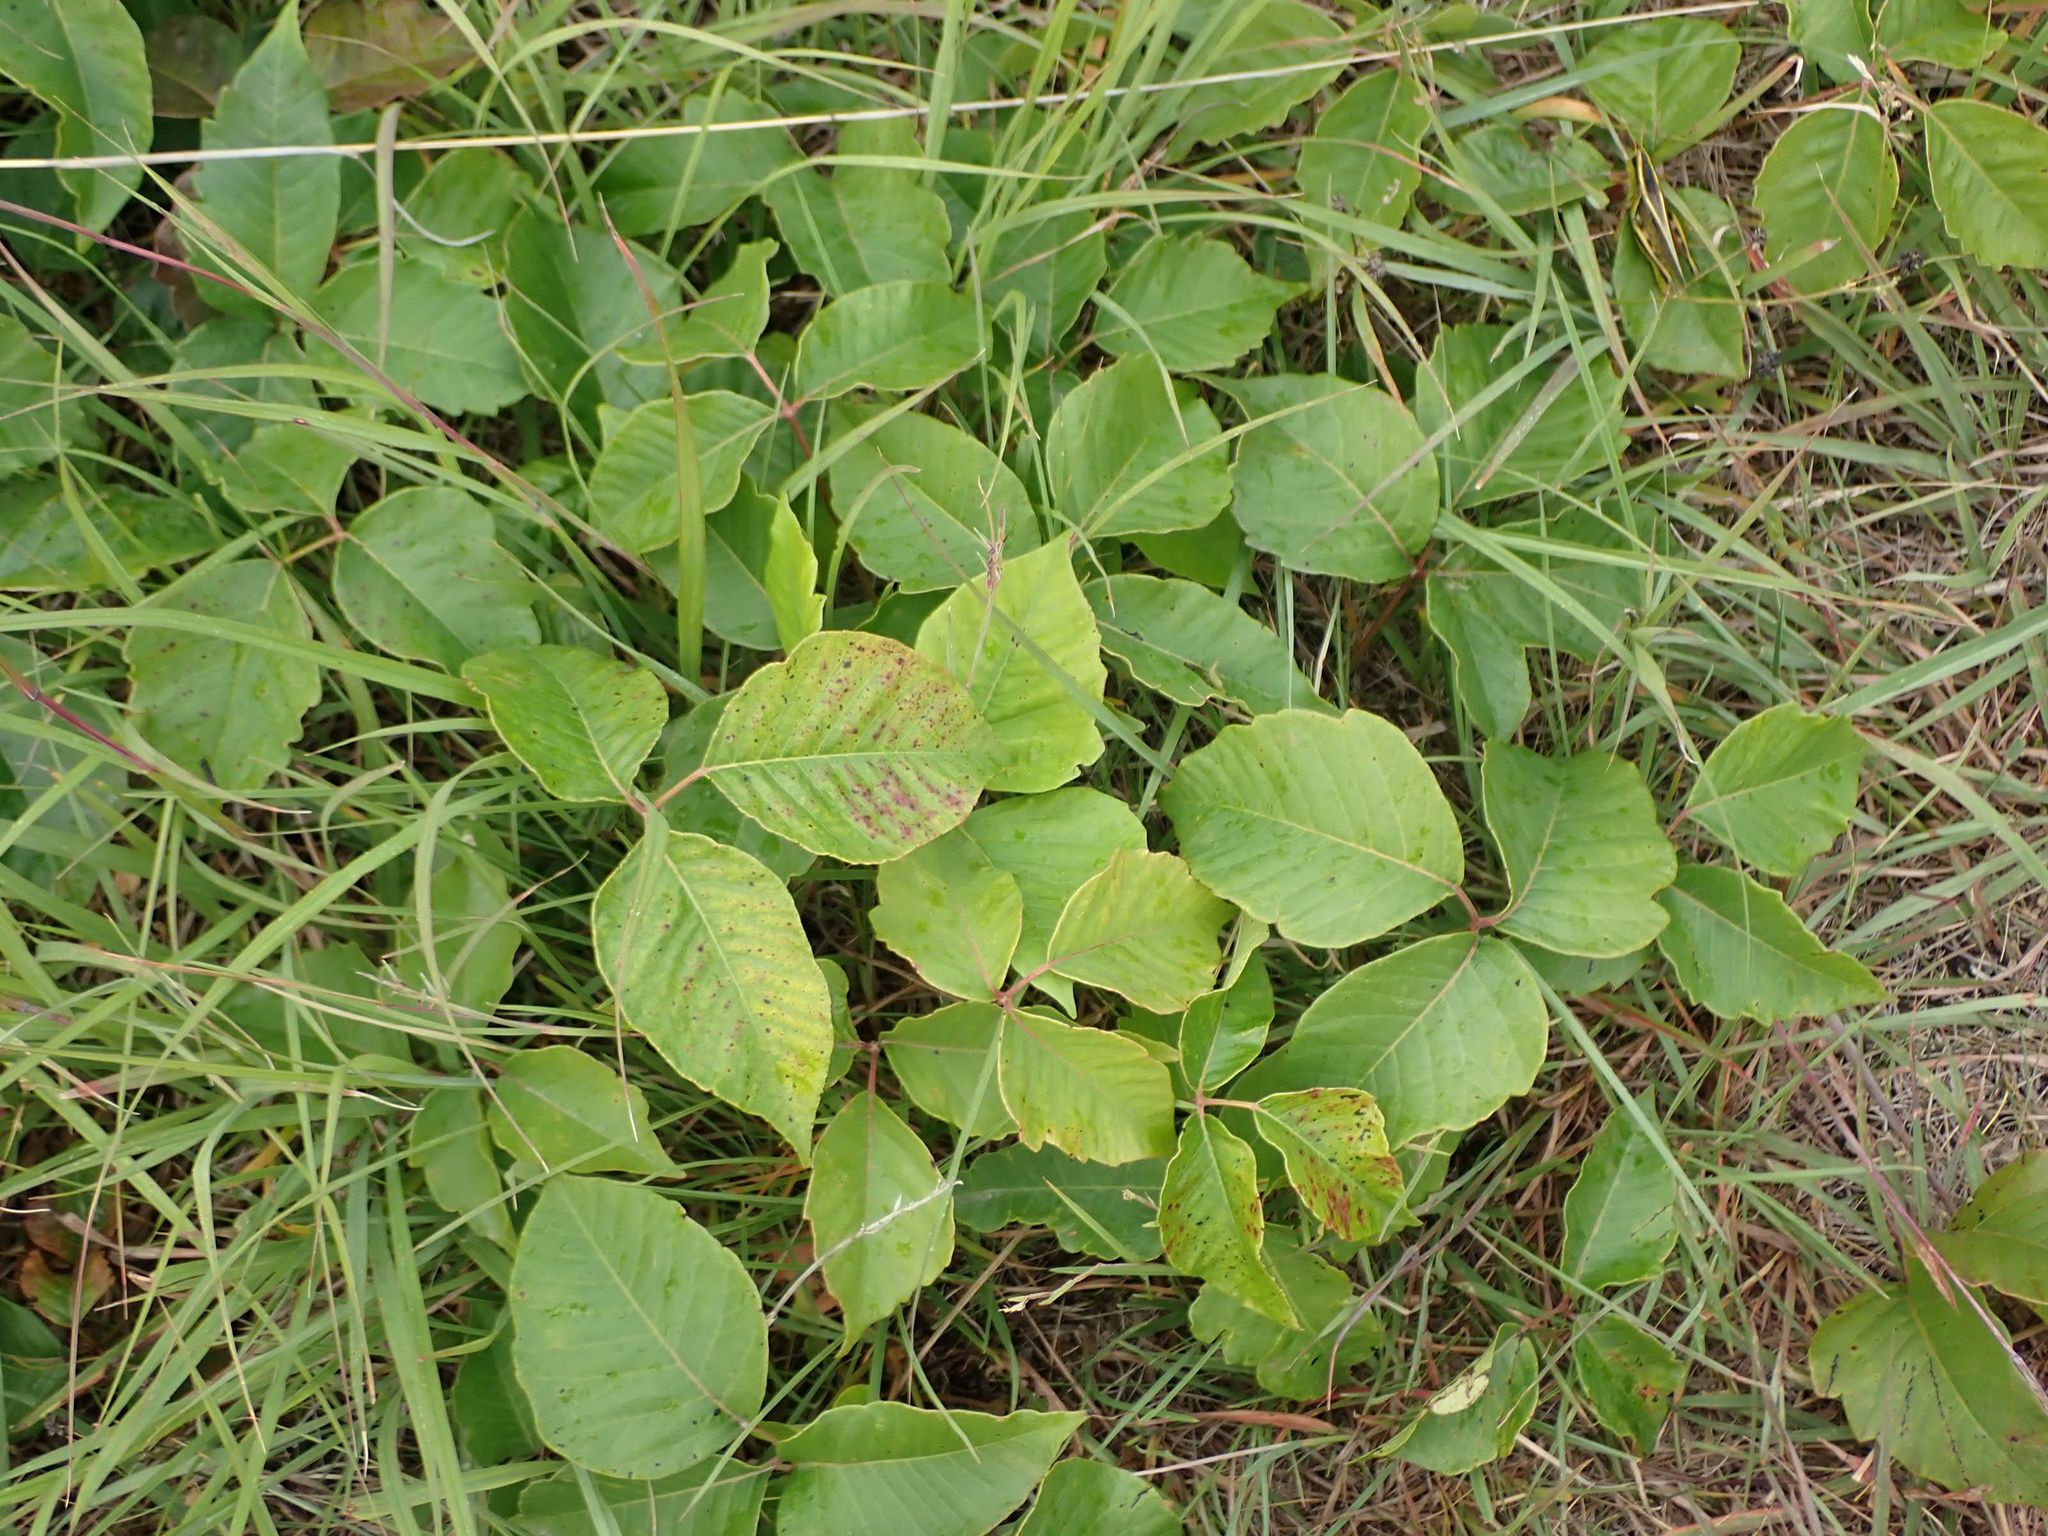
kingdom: Plantae
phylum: Tracheophyta
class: Magnoliopsida
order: Sapindales
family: Anacardiaceae
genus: Toxicodendron
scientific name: Toxicodendron rydbergii
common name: Rydberg's poison-ivy
